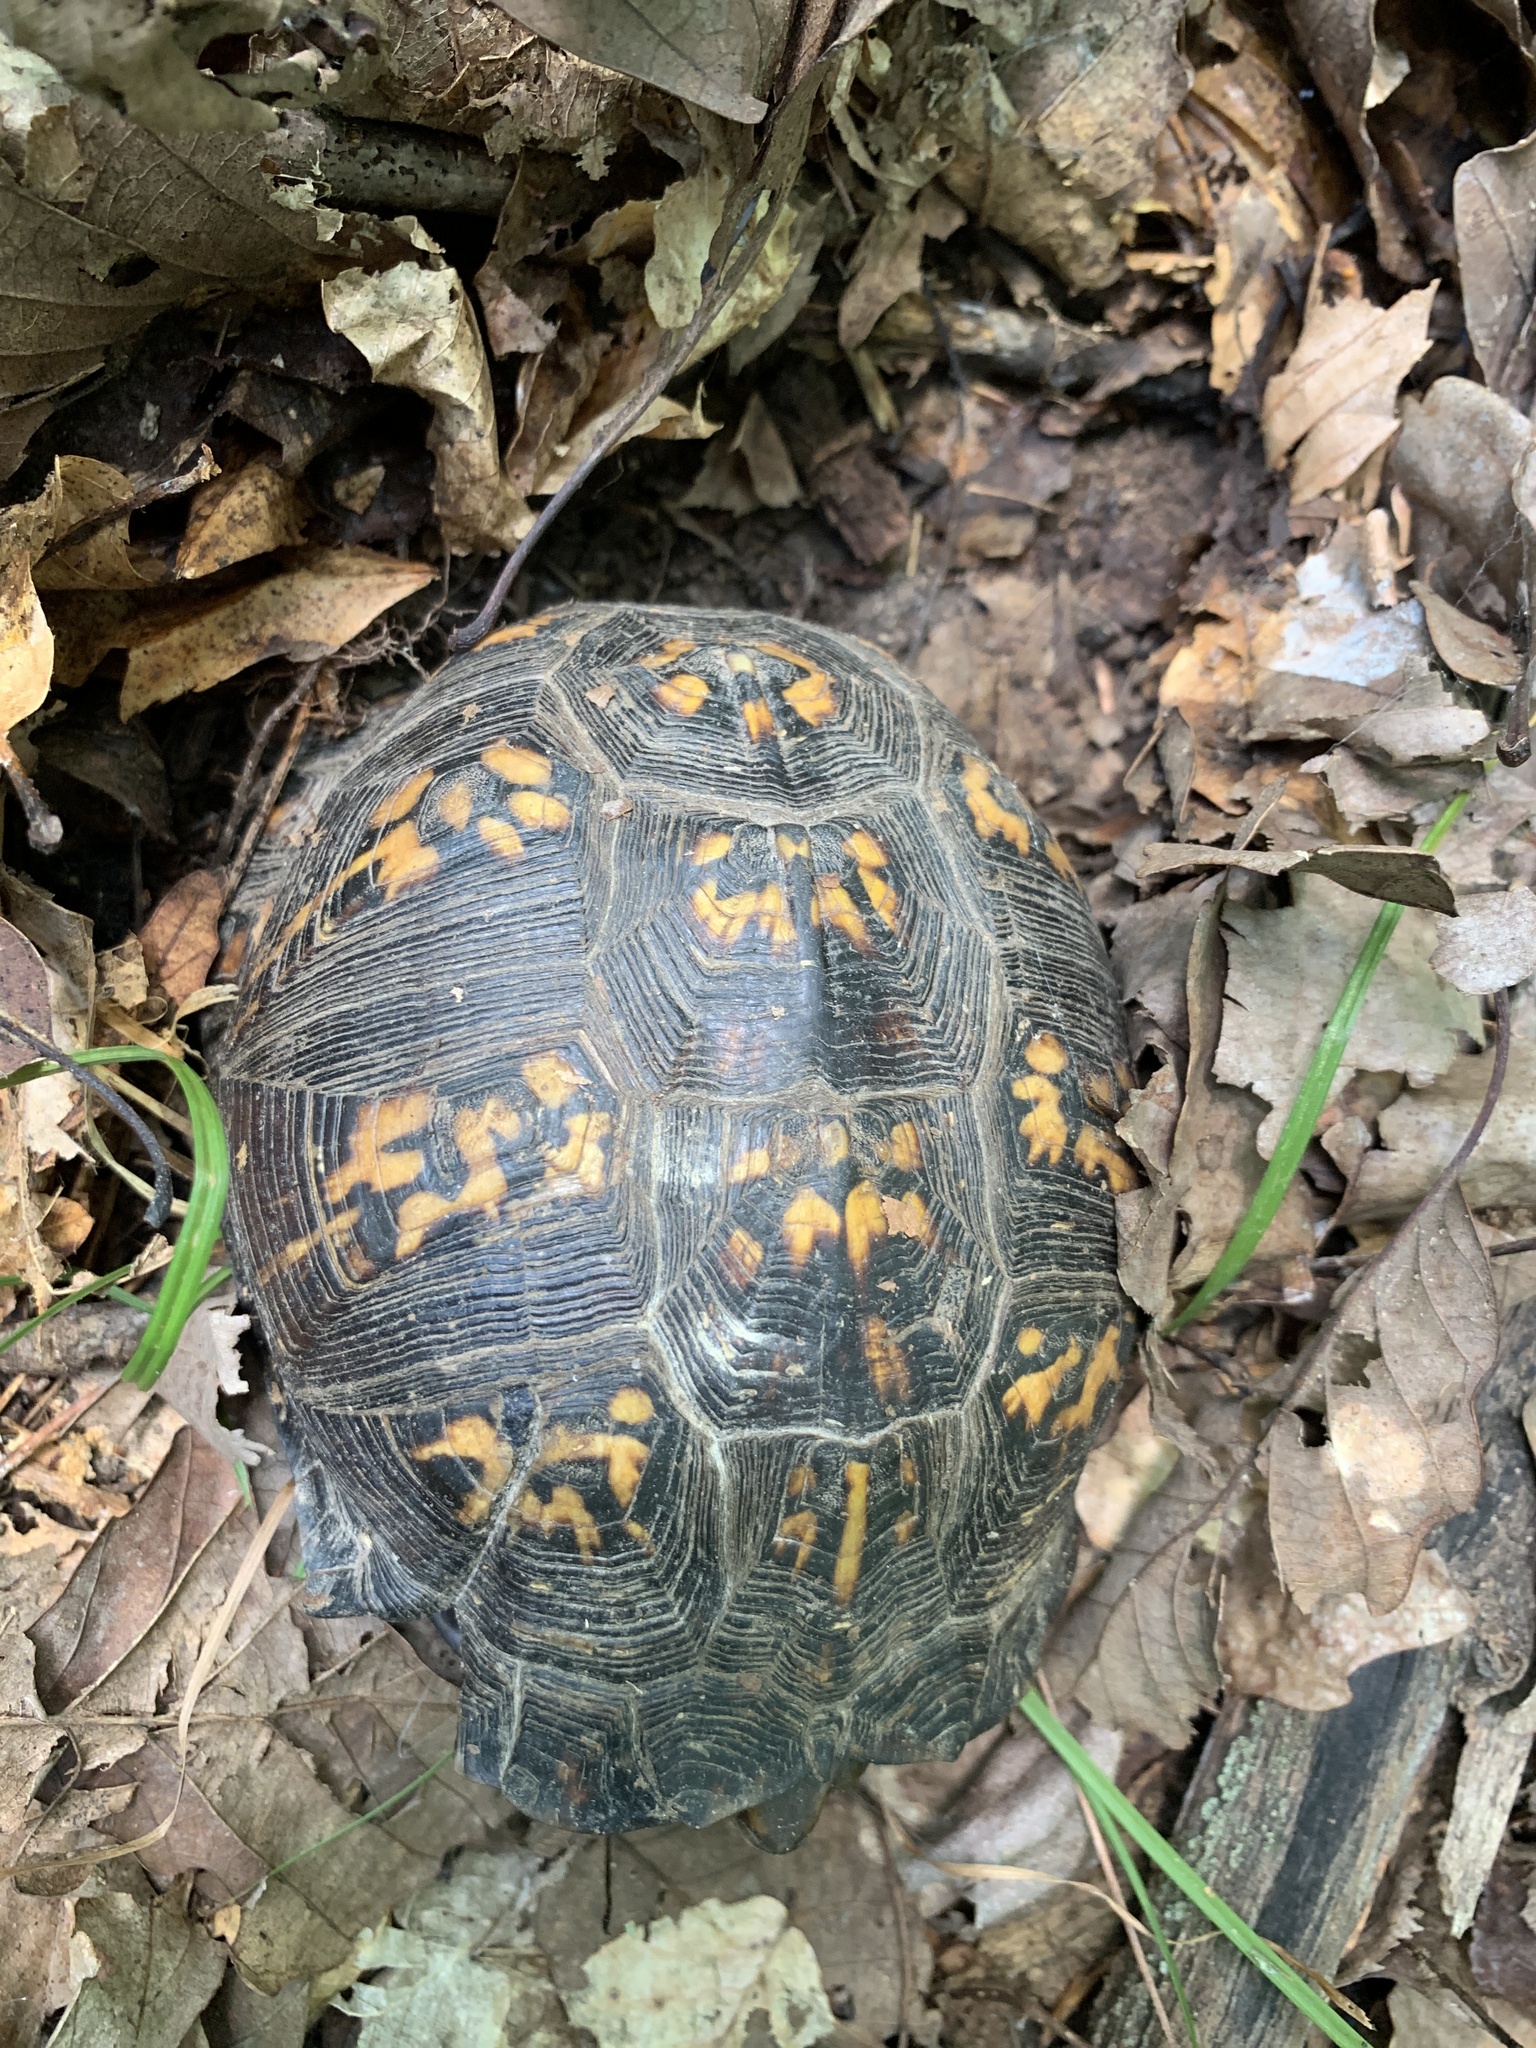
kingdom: Animalia
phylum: Chordata
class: Testudines
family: Emydidae
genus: Terrapene
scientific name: Terrapene carolina
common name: Common box turtle
